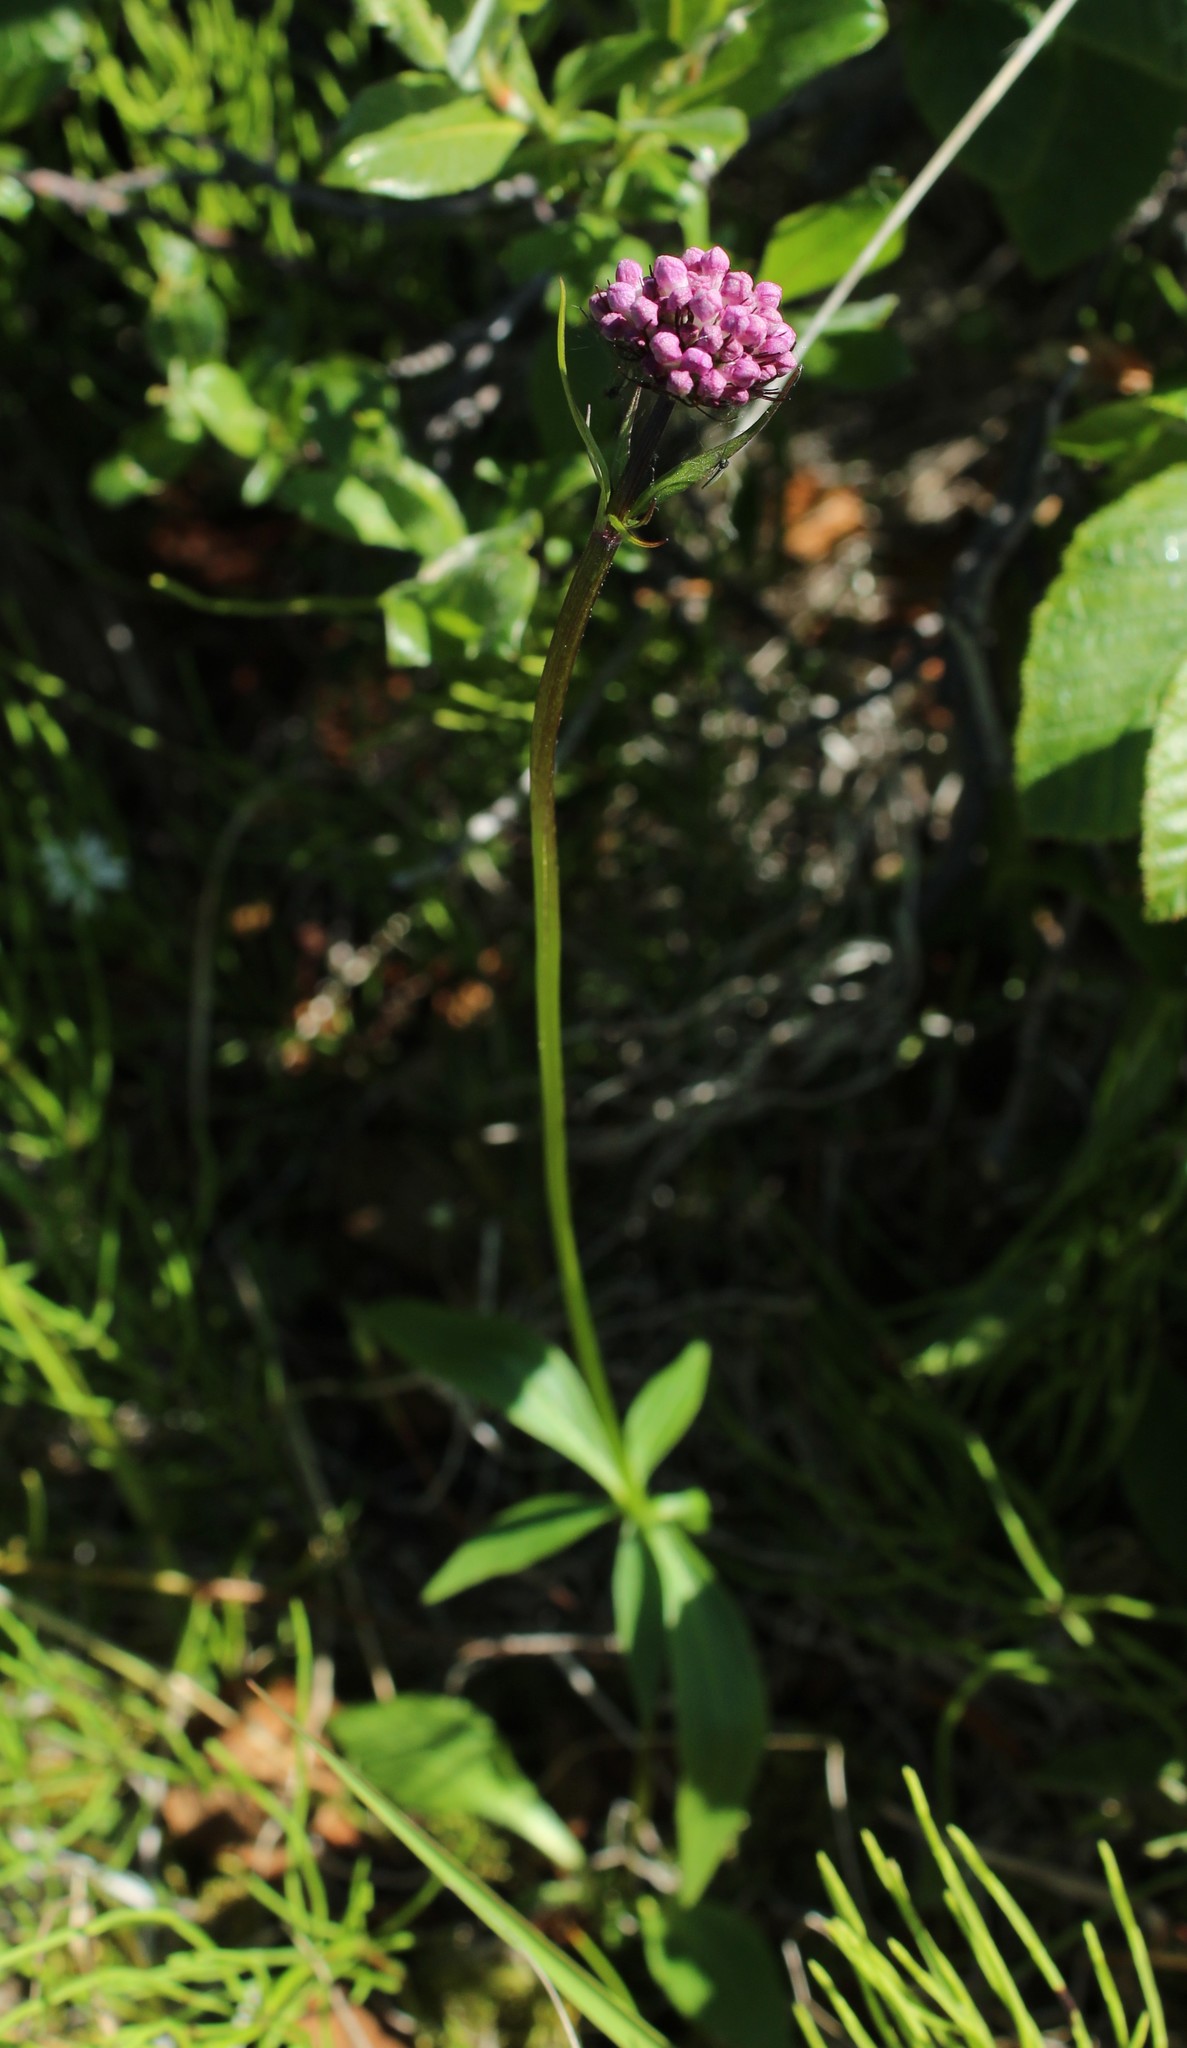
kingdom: Plantae
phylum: Tracheophyta
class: Magnoliopsida
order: Dipsacales
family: Caprifoliaceae
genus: Valeriana
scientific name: Valeriana capitata
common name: Capitate valerian
